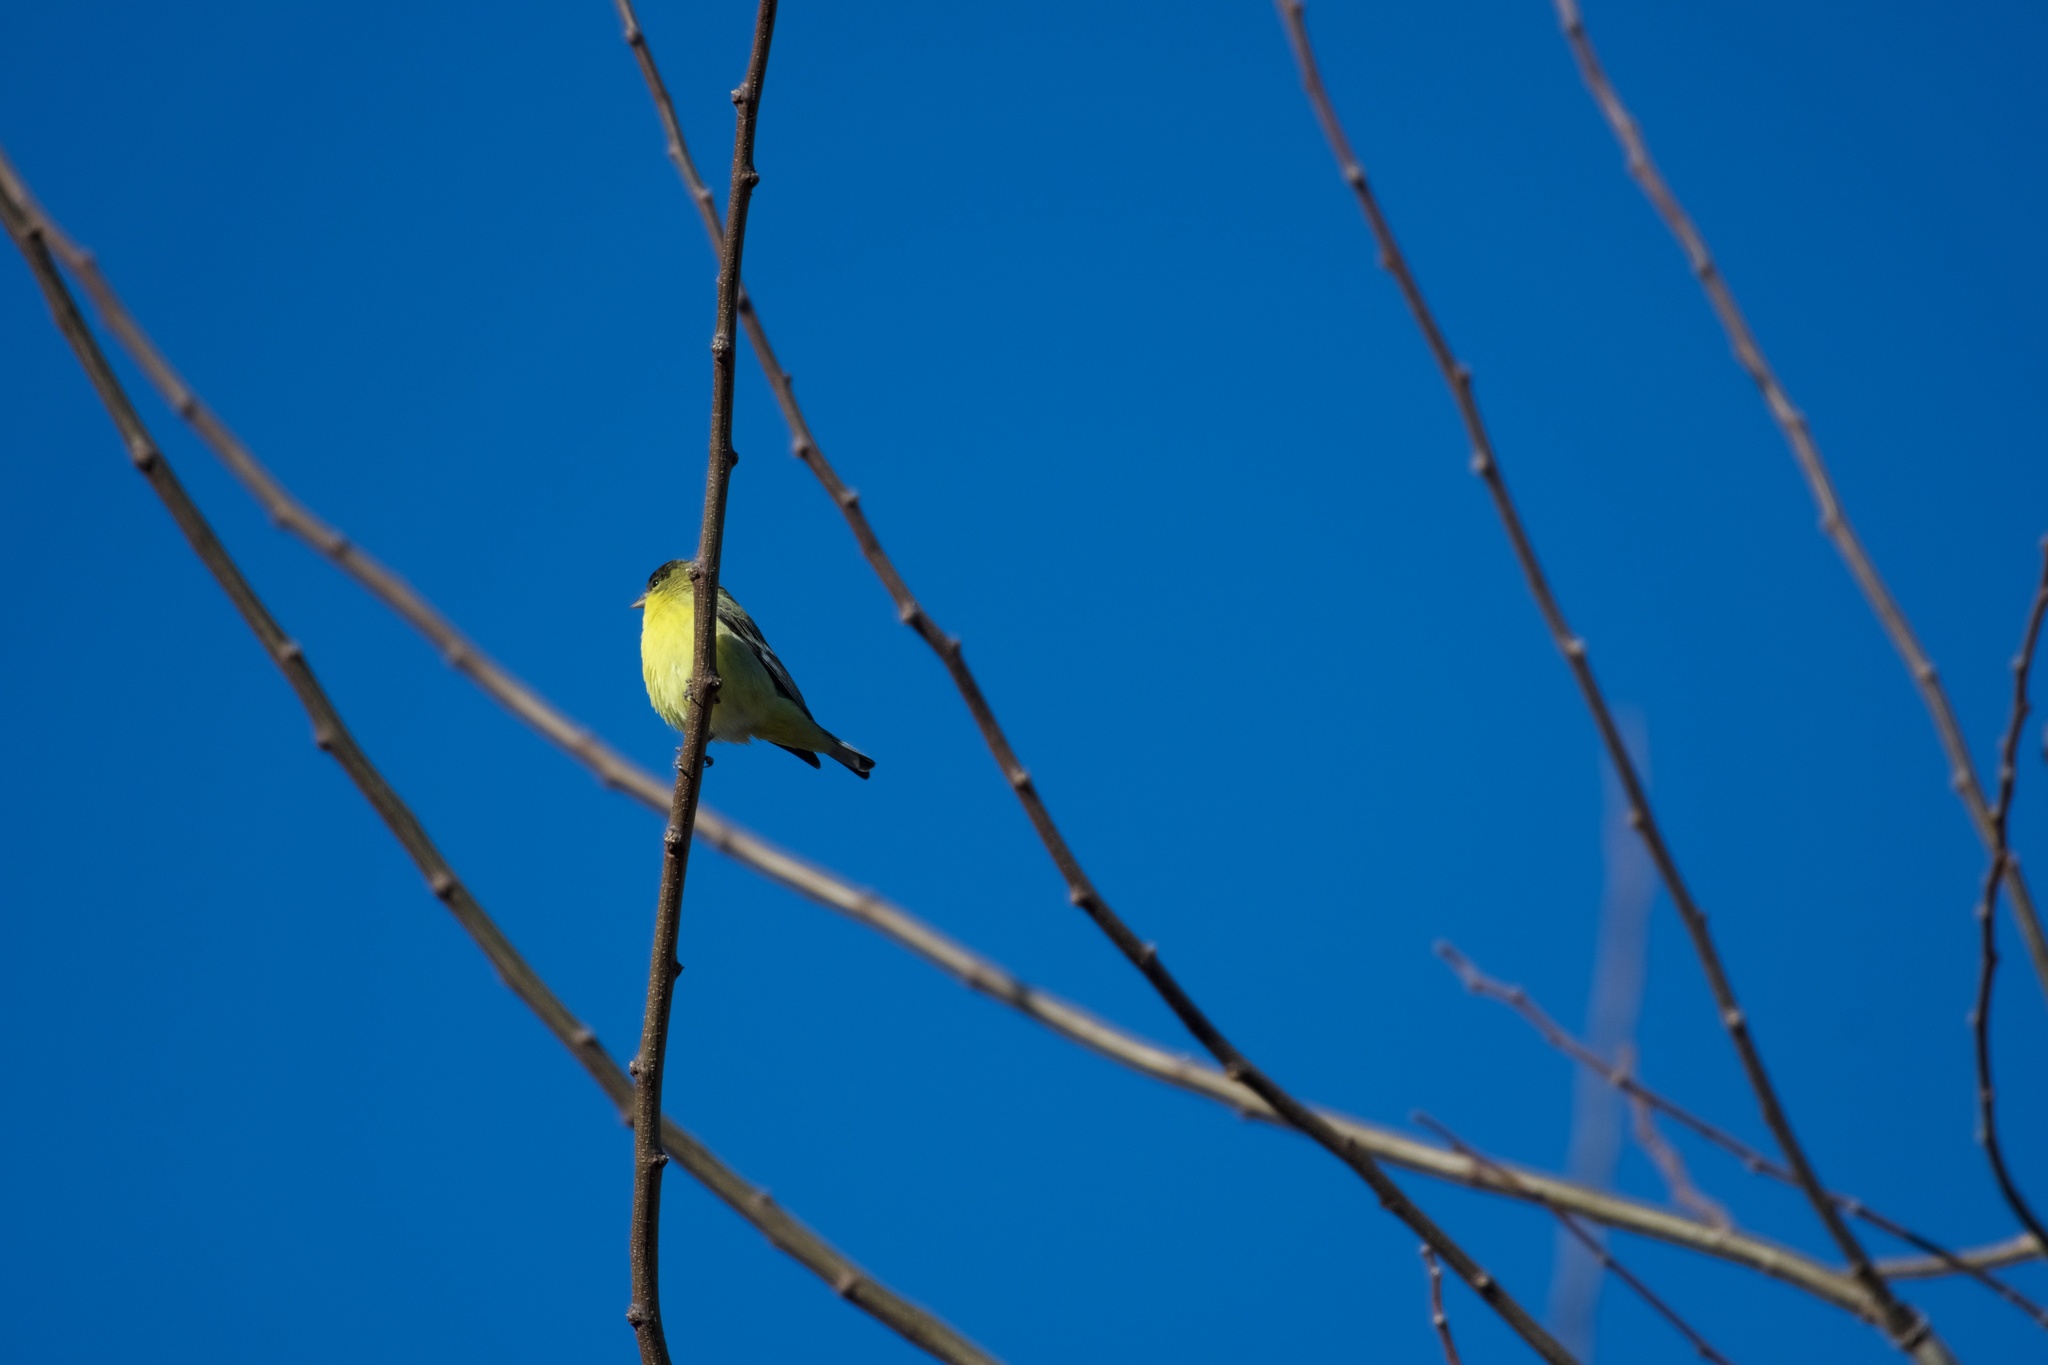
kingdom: Animalia
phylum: Chordata
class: Aves
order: Passeriformes
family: Fringillidae
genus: Spinus
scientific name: Spinus psaltria
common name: Lesser goldfinch
